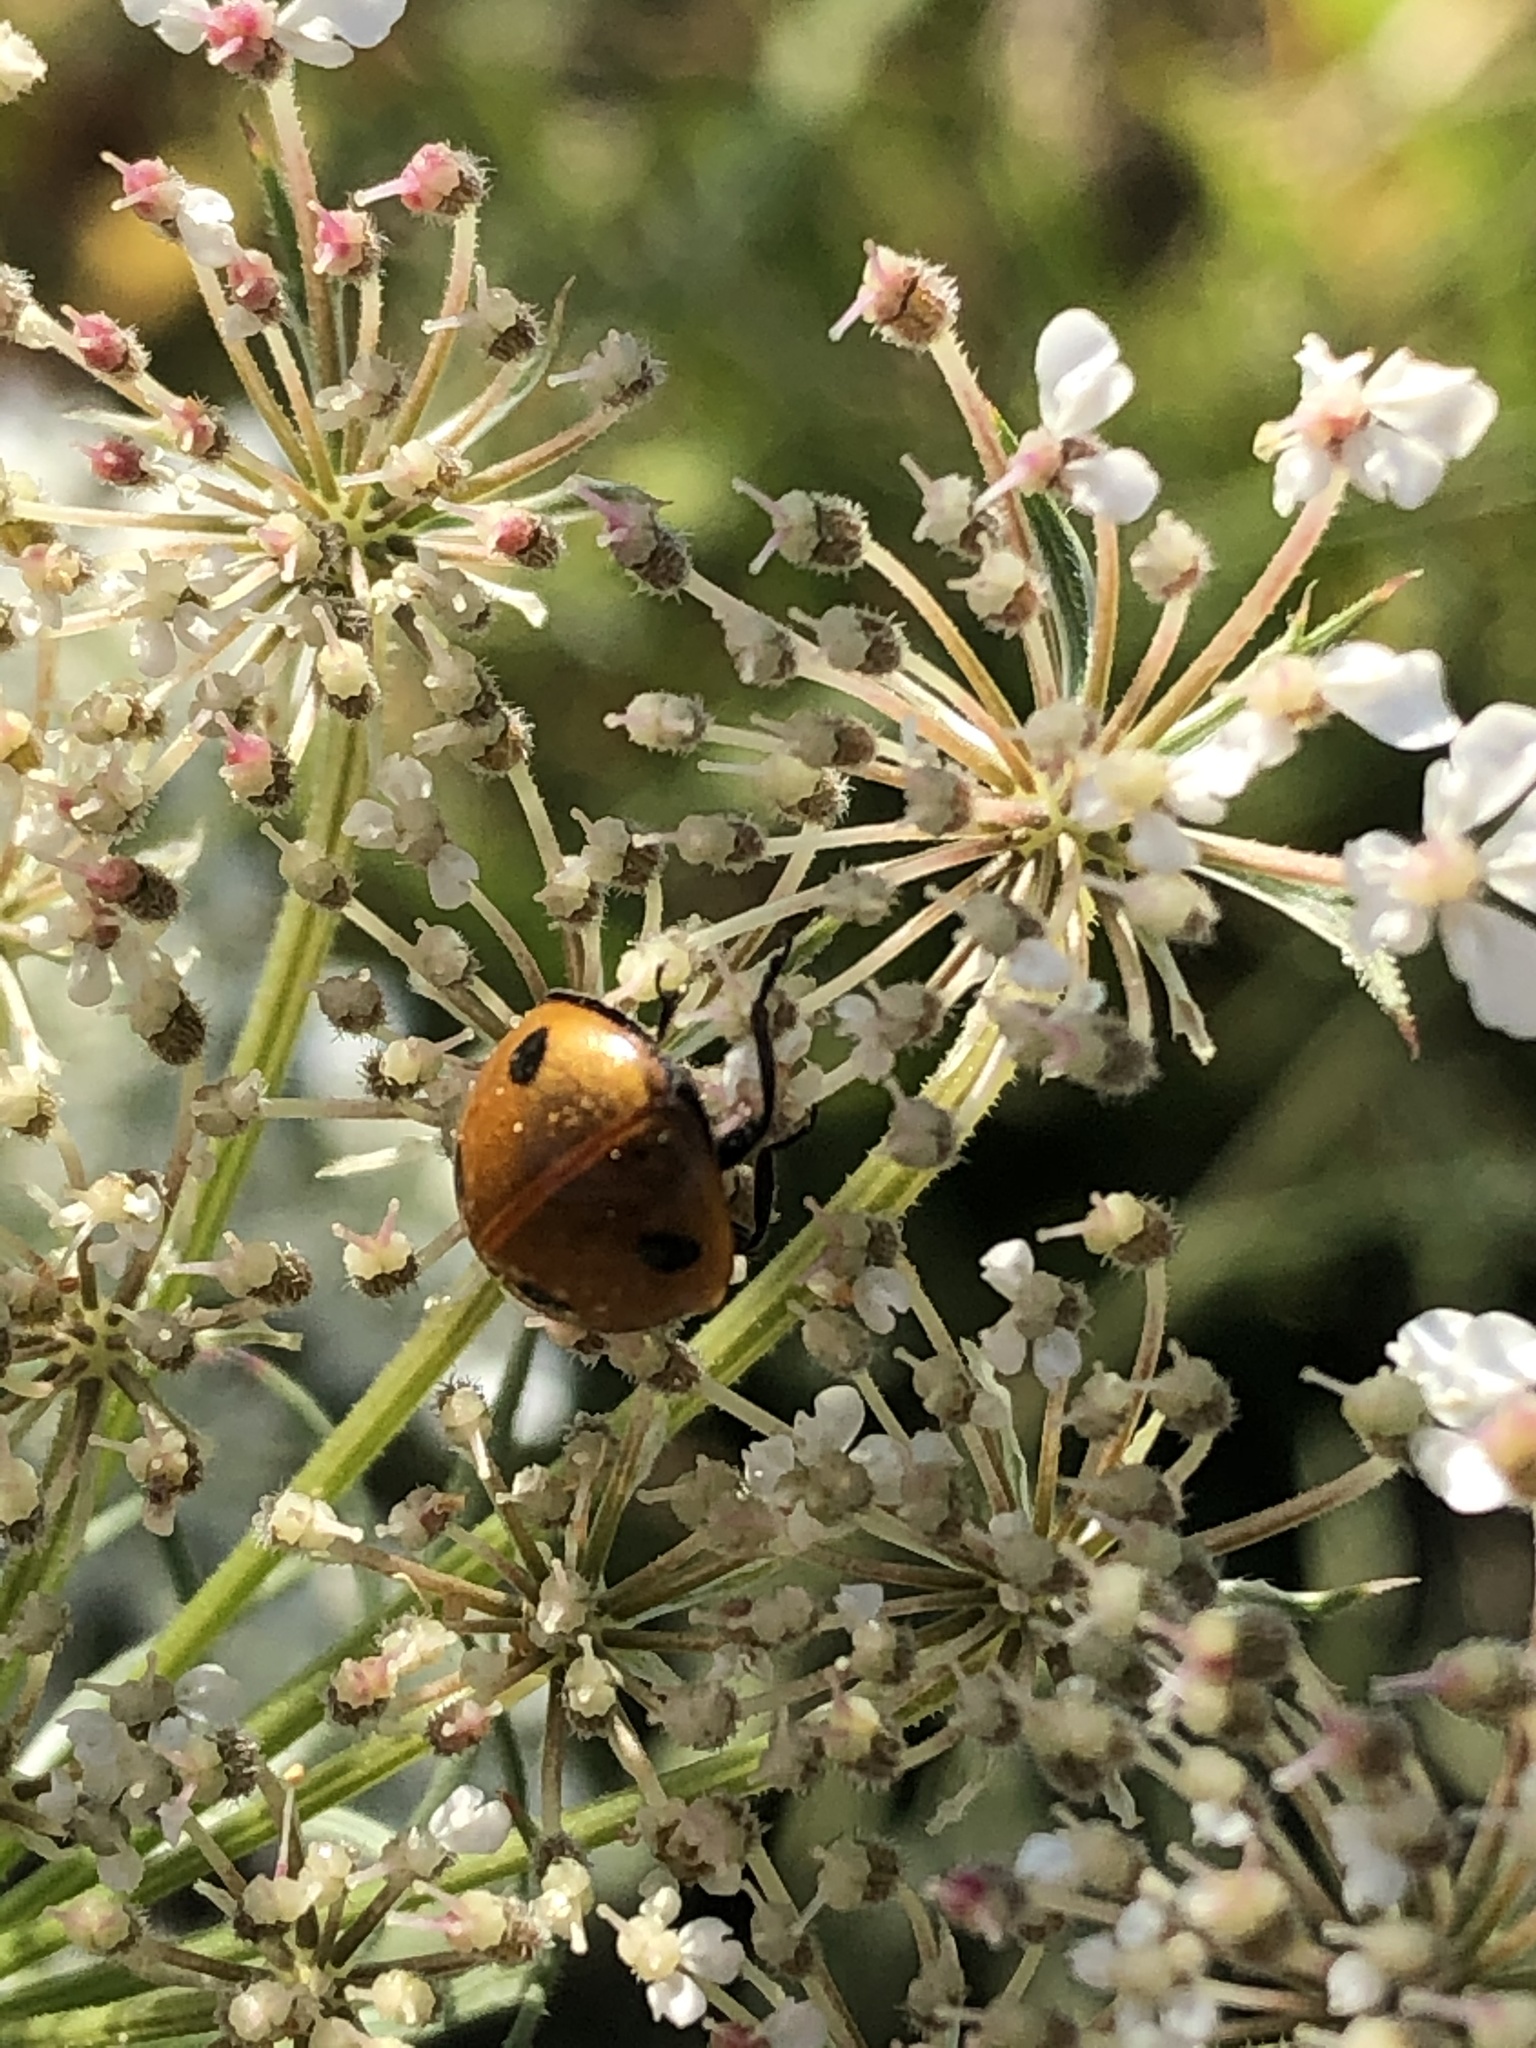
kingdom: Animalia
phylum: Arthropoda
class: Insecta
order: Coleoptera
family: Coccinellidae
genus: Coccinella
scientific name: Coccinella septempunctata
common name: Sevenspotted lady beetle
